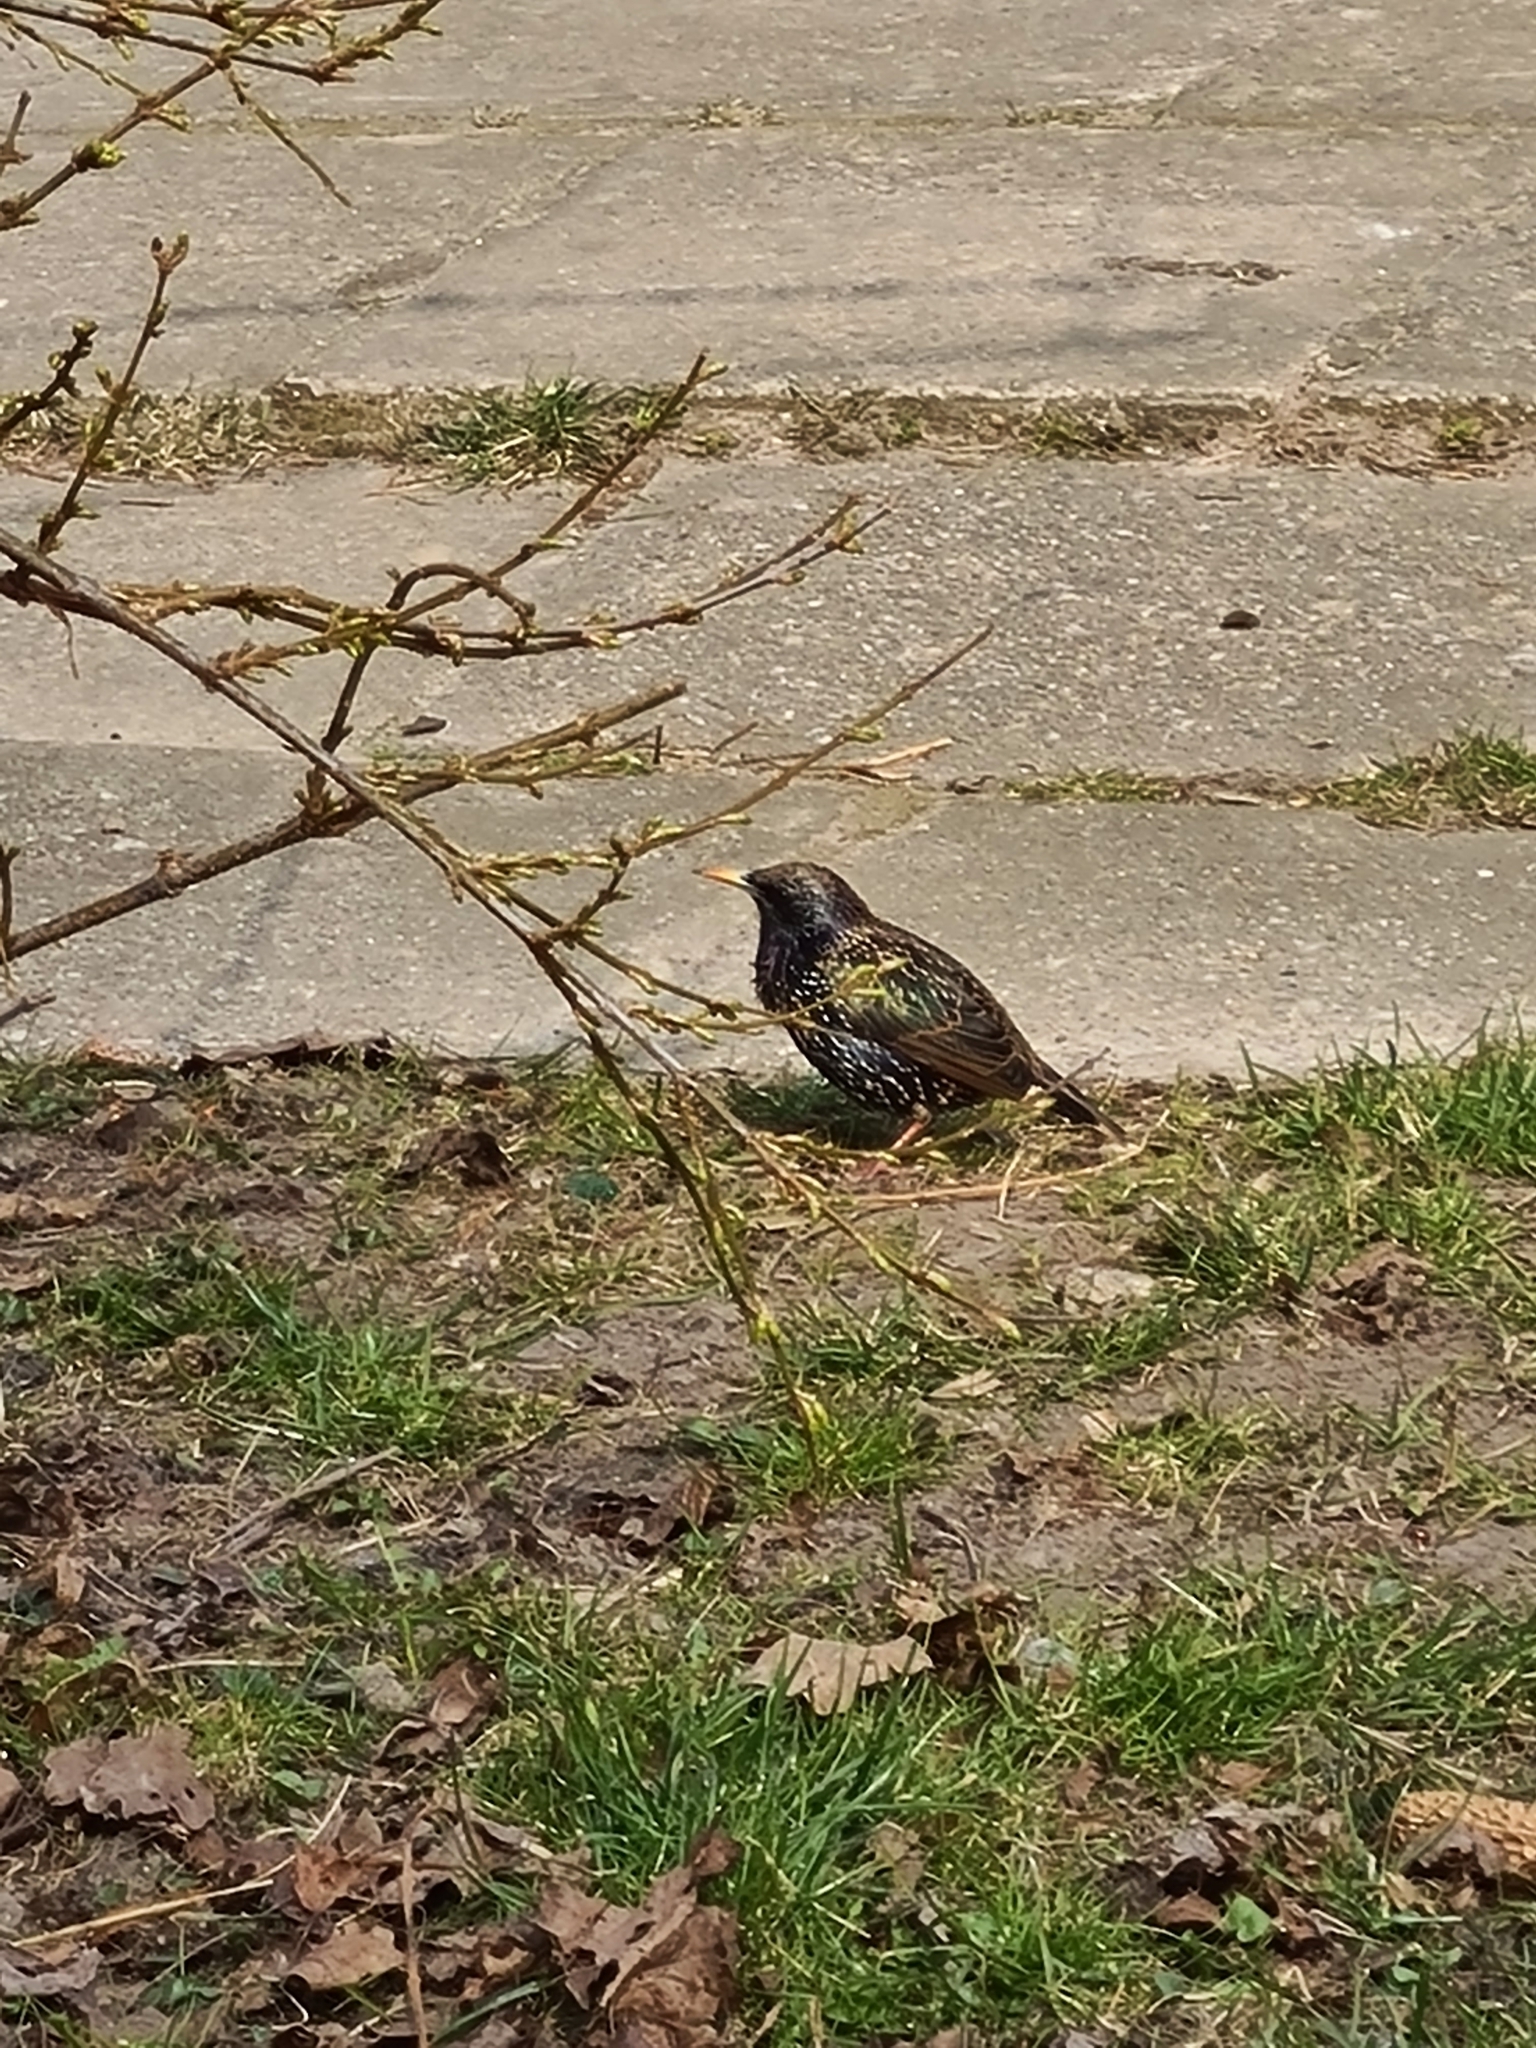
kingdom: Animalia
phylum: Chordata
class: Aves
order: Passeriformes
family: Sturnidae
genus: Sturnus
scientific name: Sturnus vulgaris
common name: Common starling
